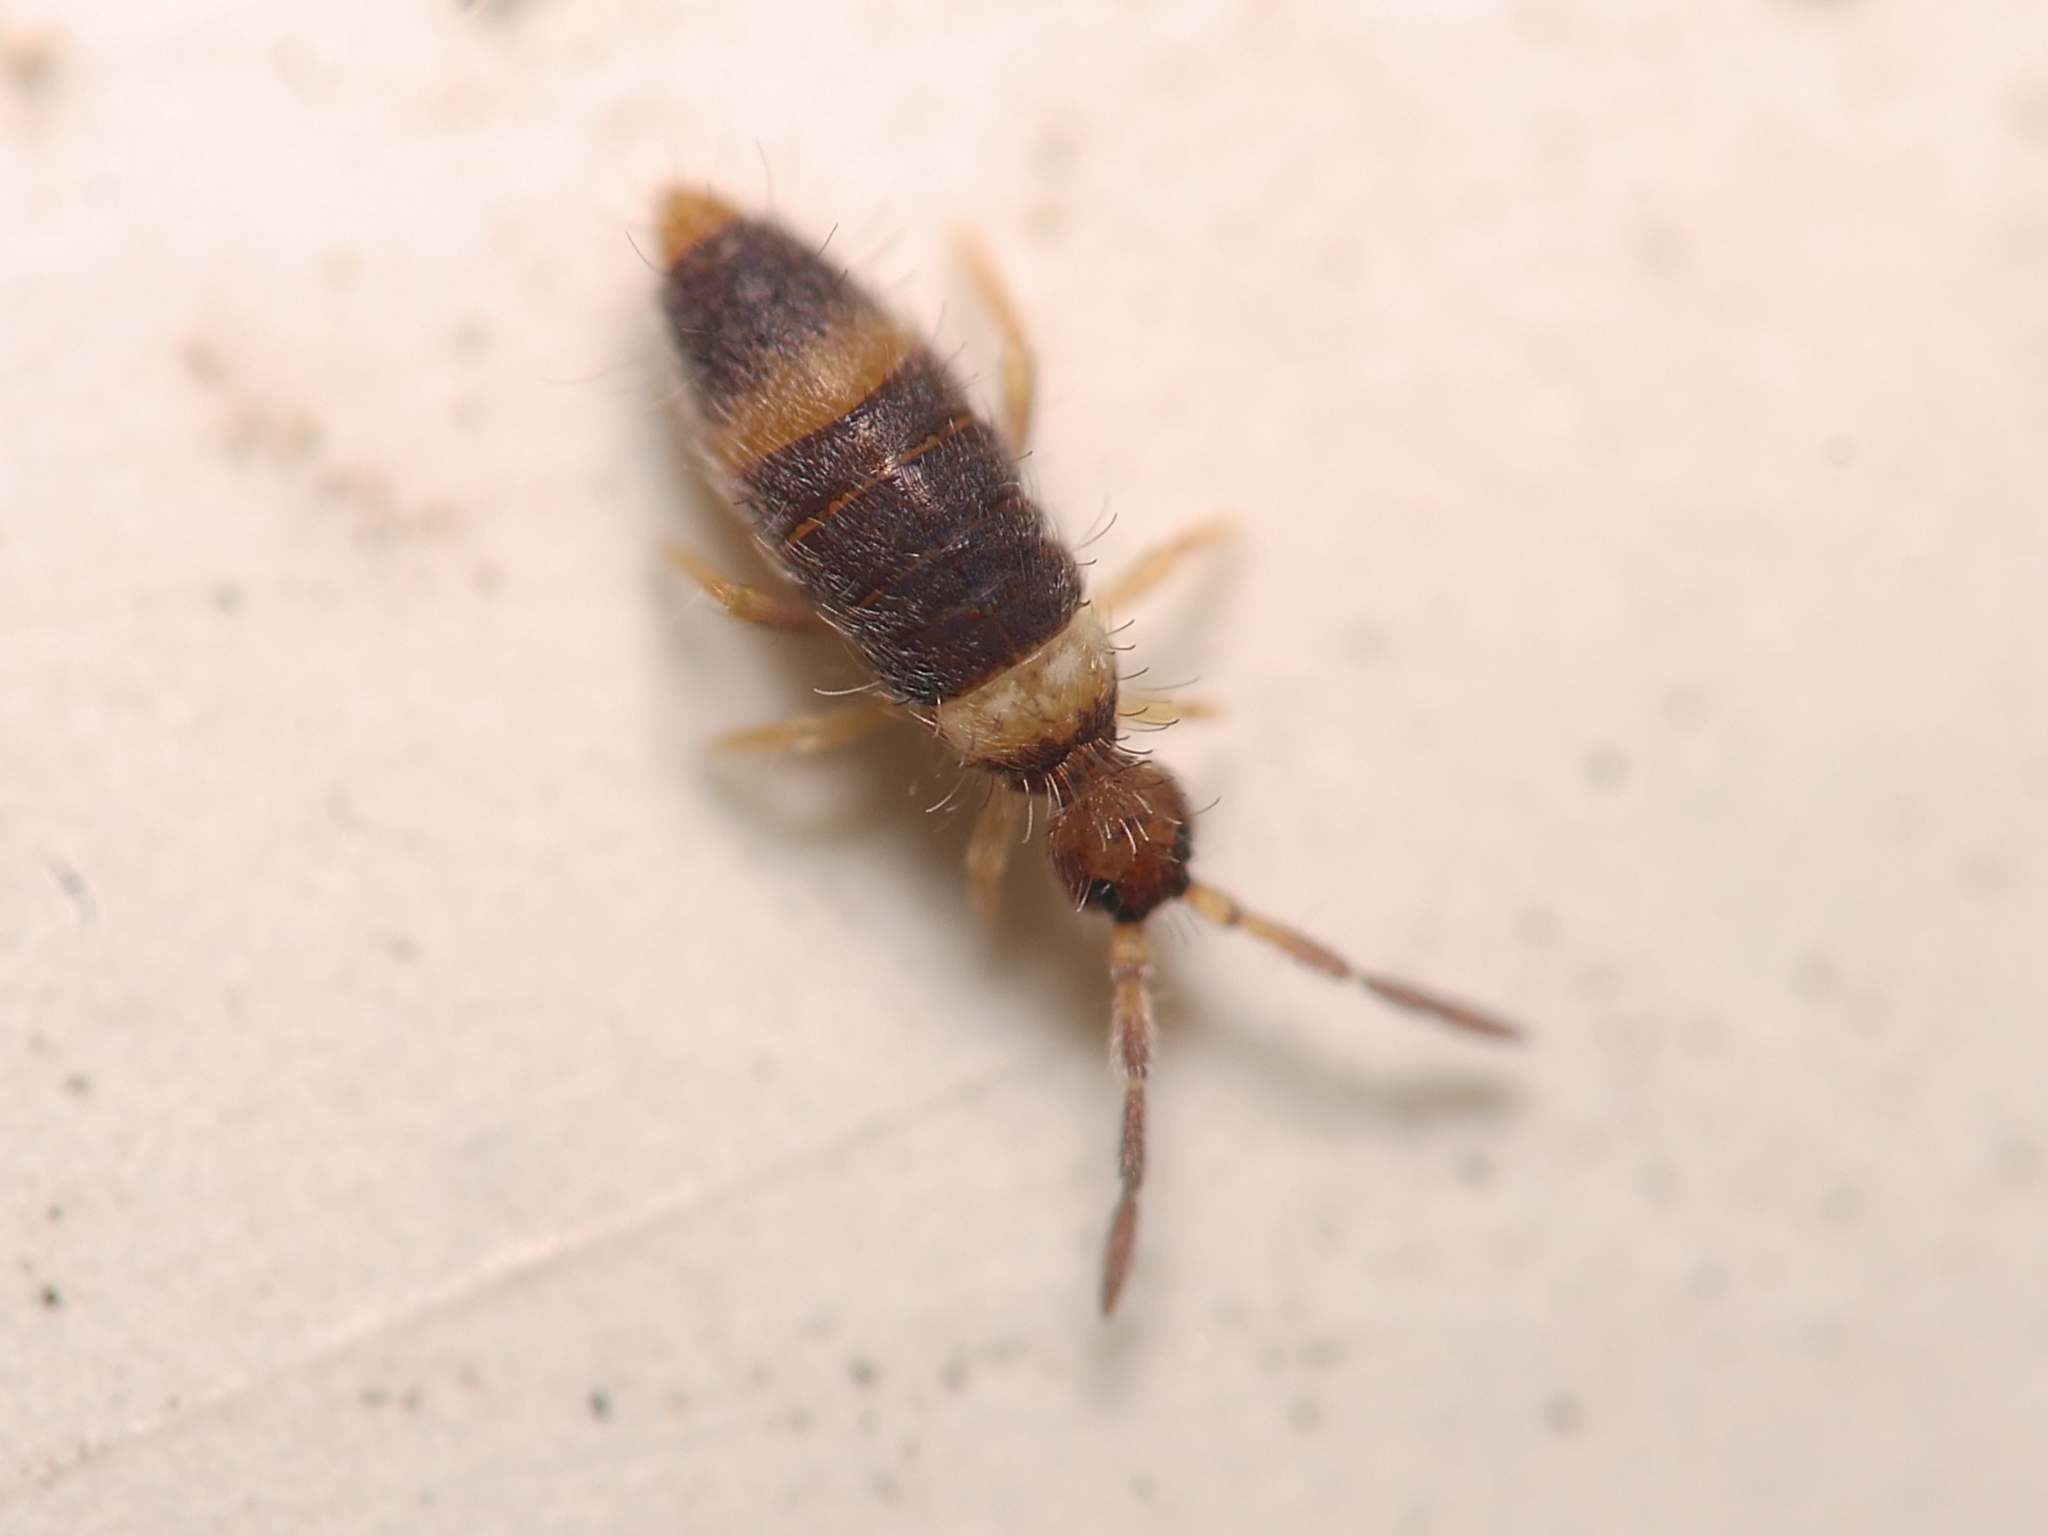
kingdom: Animalia
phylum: Arthropoda
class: Collembola
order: Entomobryomorpha
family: Entomobryidae
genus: Entomobrya
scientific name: Entomobrya albocincta
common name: Springtail
